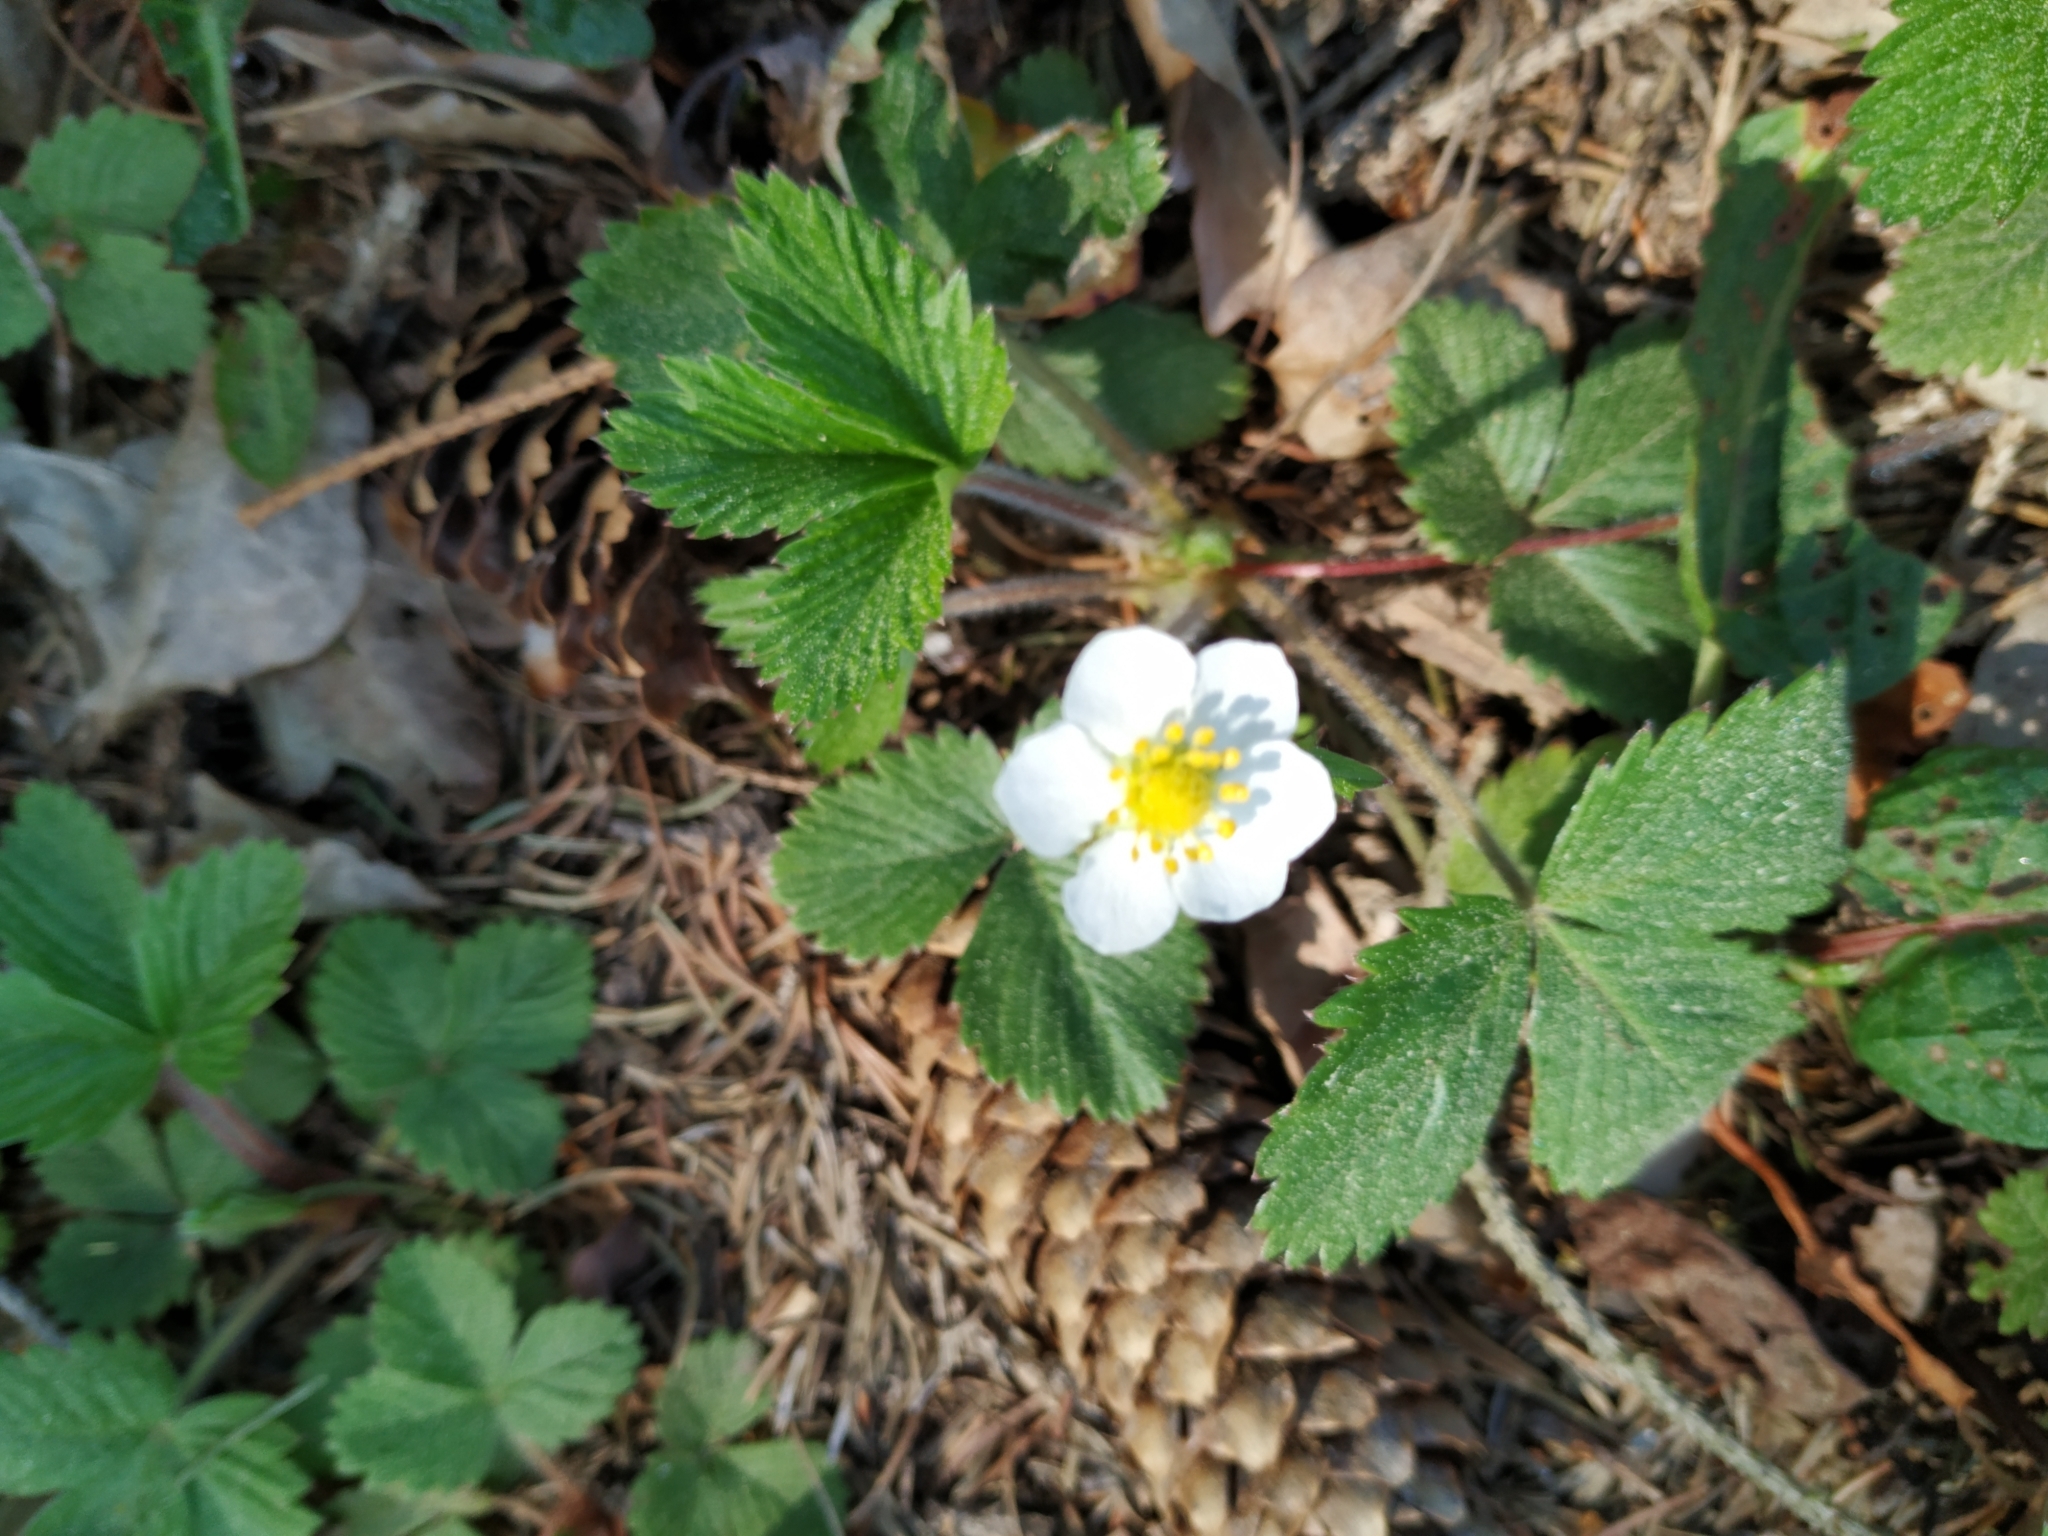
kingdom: Plantae
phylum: Tracheophyta
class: Magnoliopsida
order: Rosales
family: Rosaceae
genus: Fragaria
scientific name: Fragaria vesca
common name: Wild strawberry
